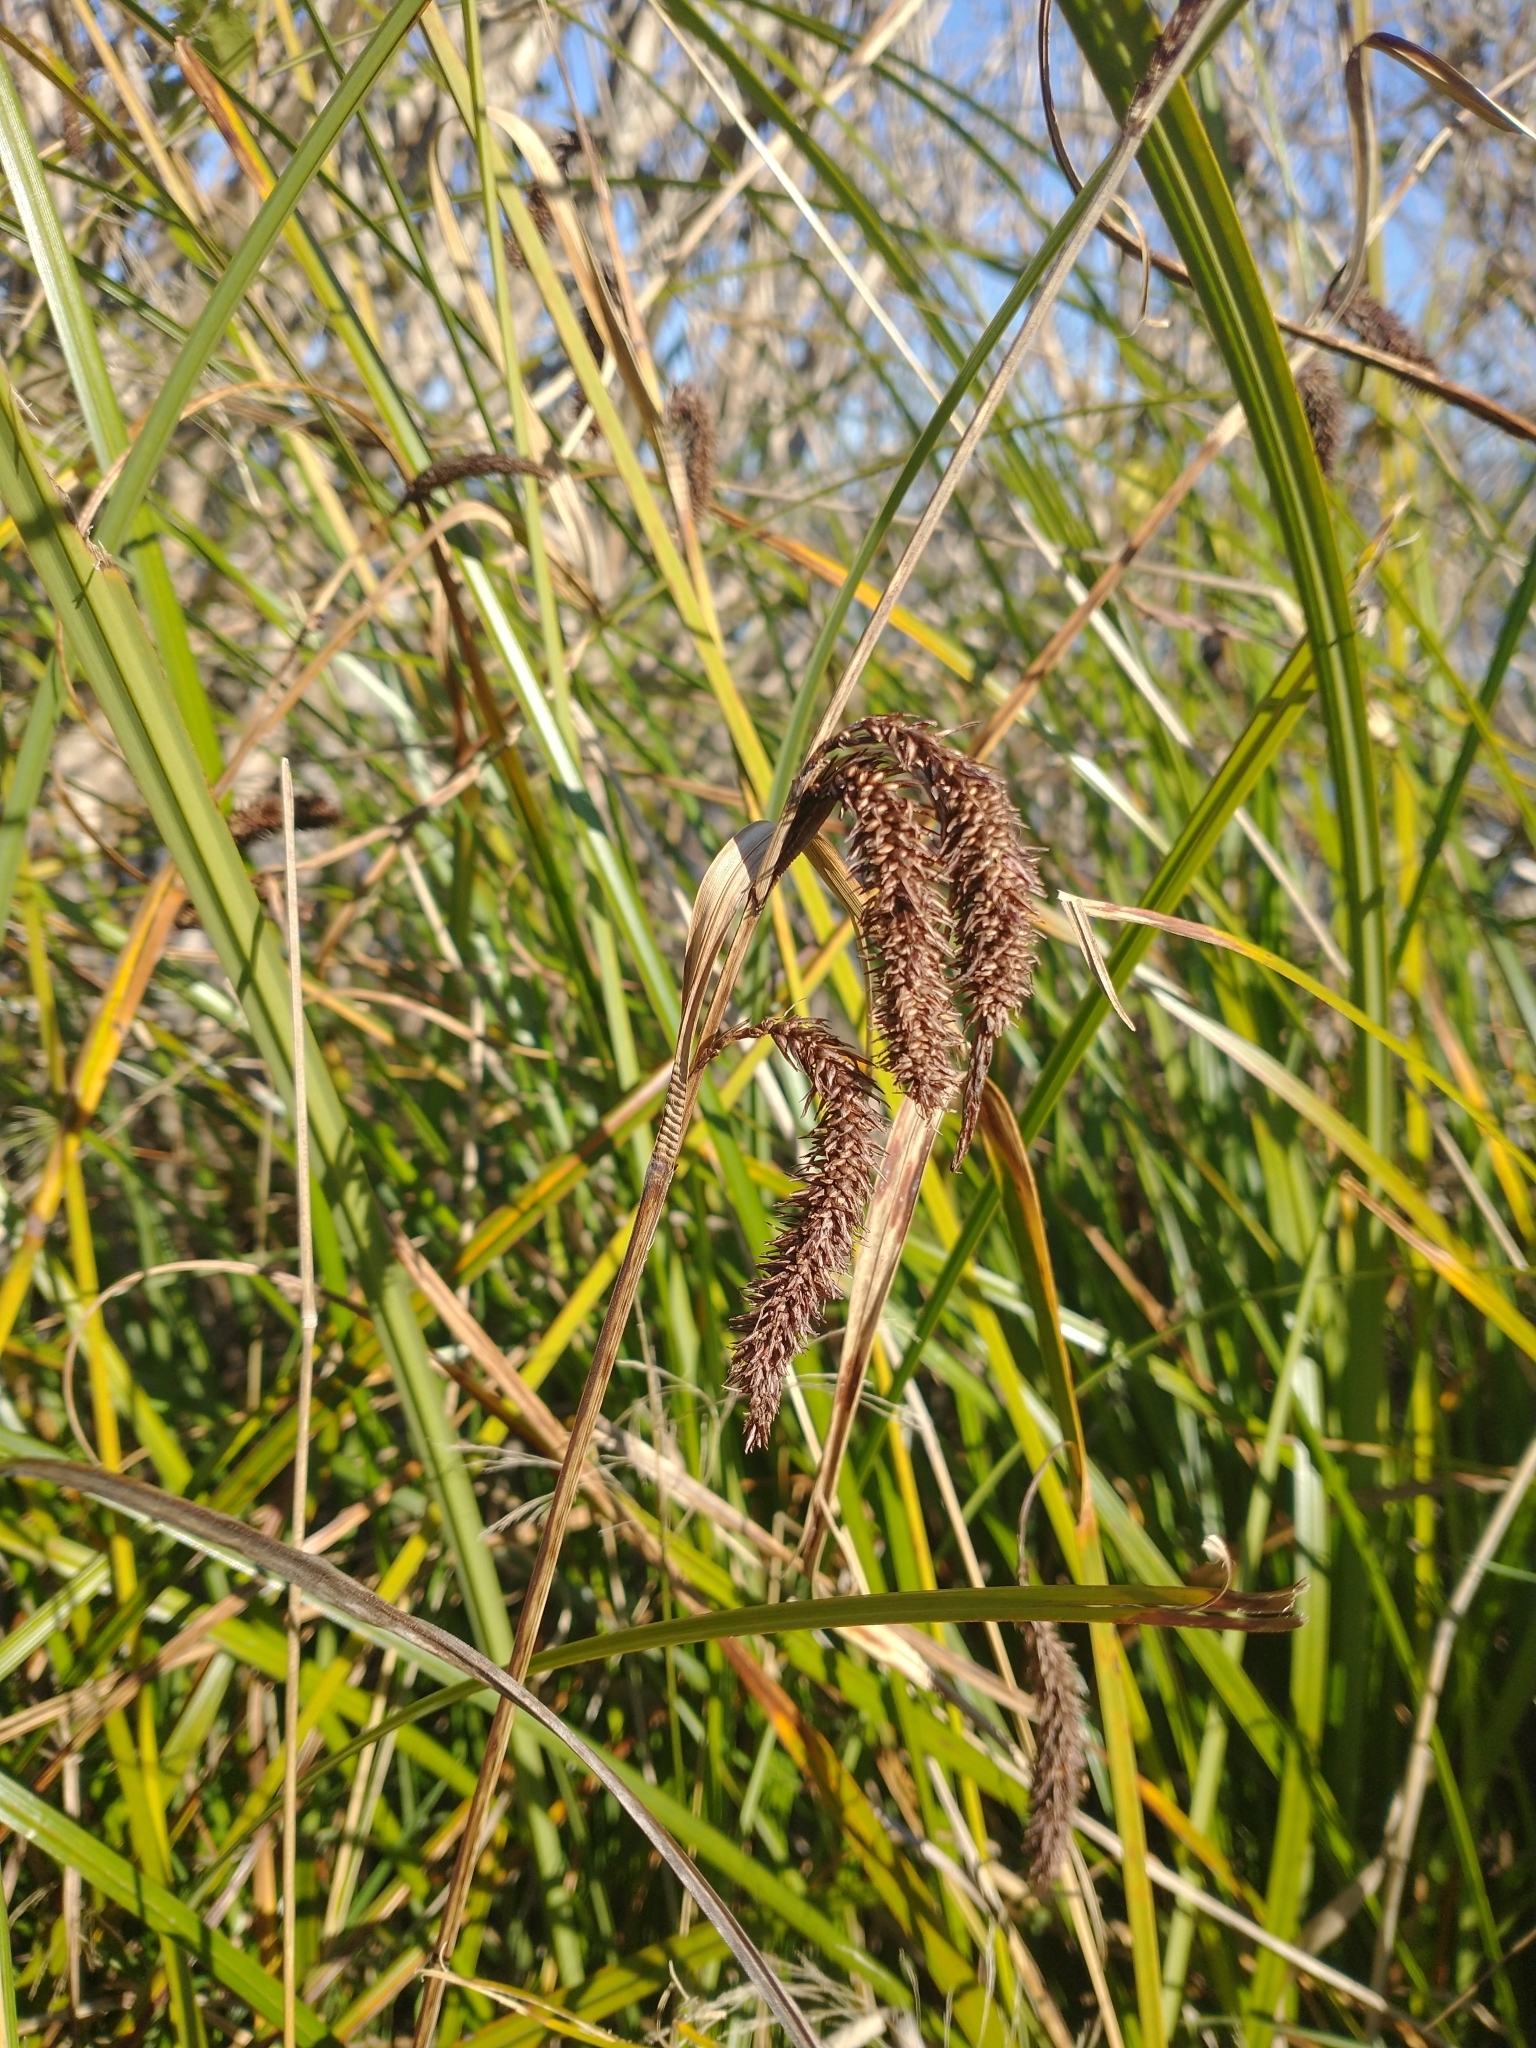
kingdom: Plantae
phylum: Tracheophyta
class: Liliopsida
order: Poales
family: Cyperaceae
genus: Carex
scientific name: Carex obnupta
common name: Slough sedge
